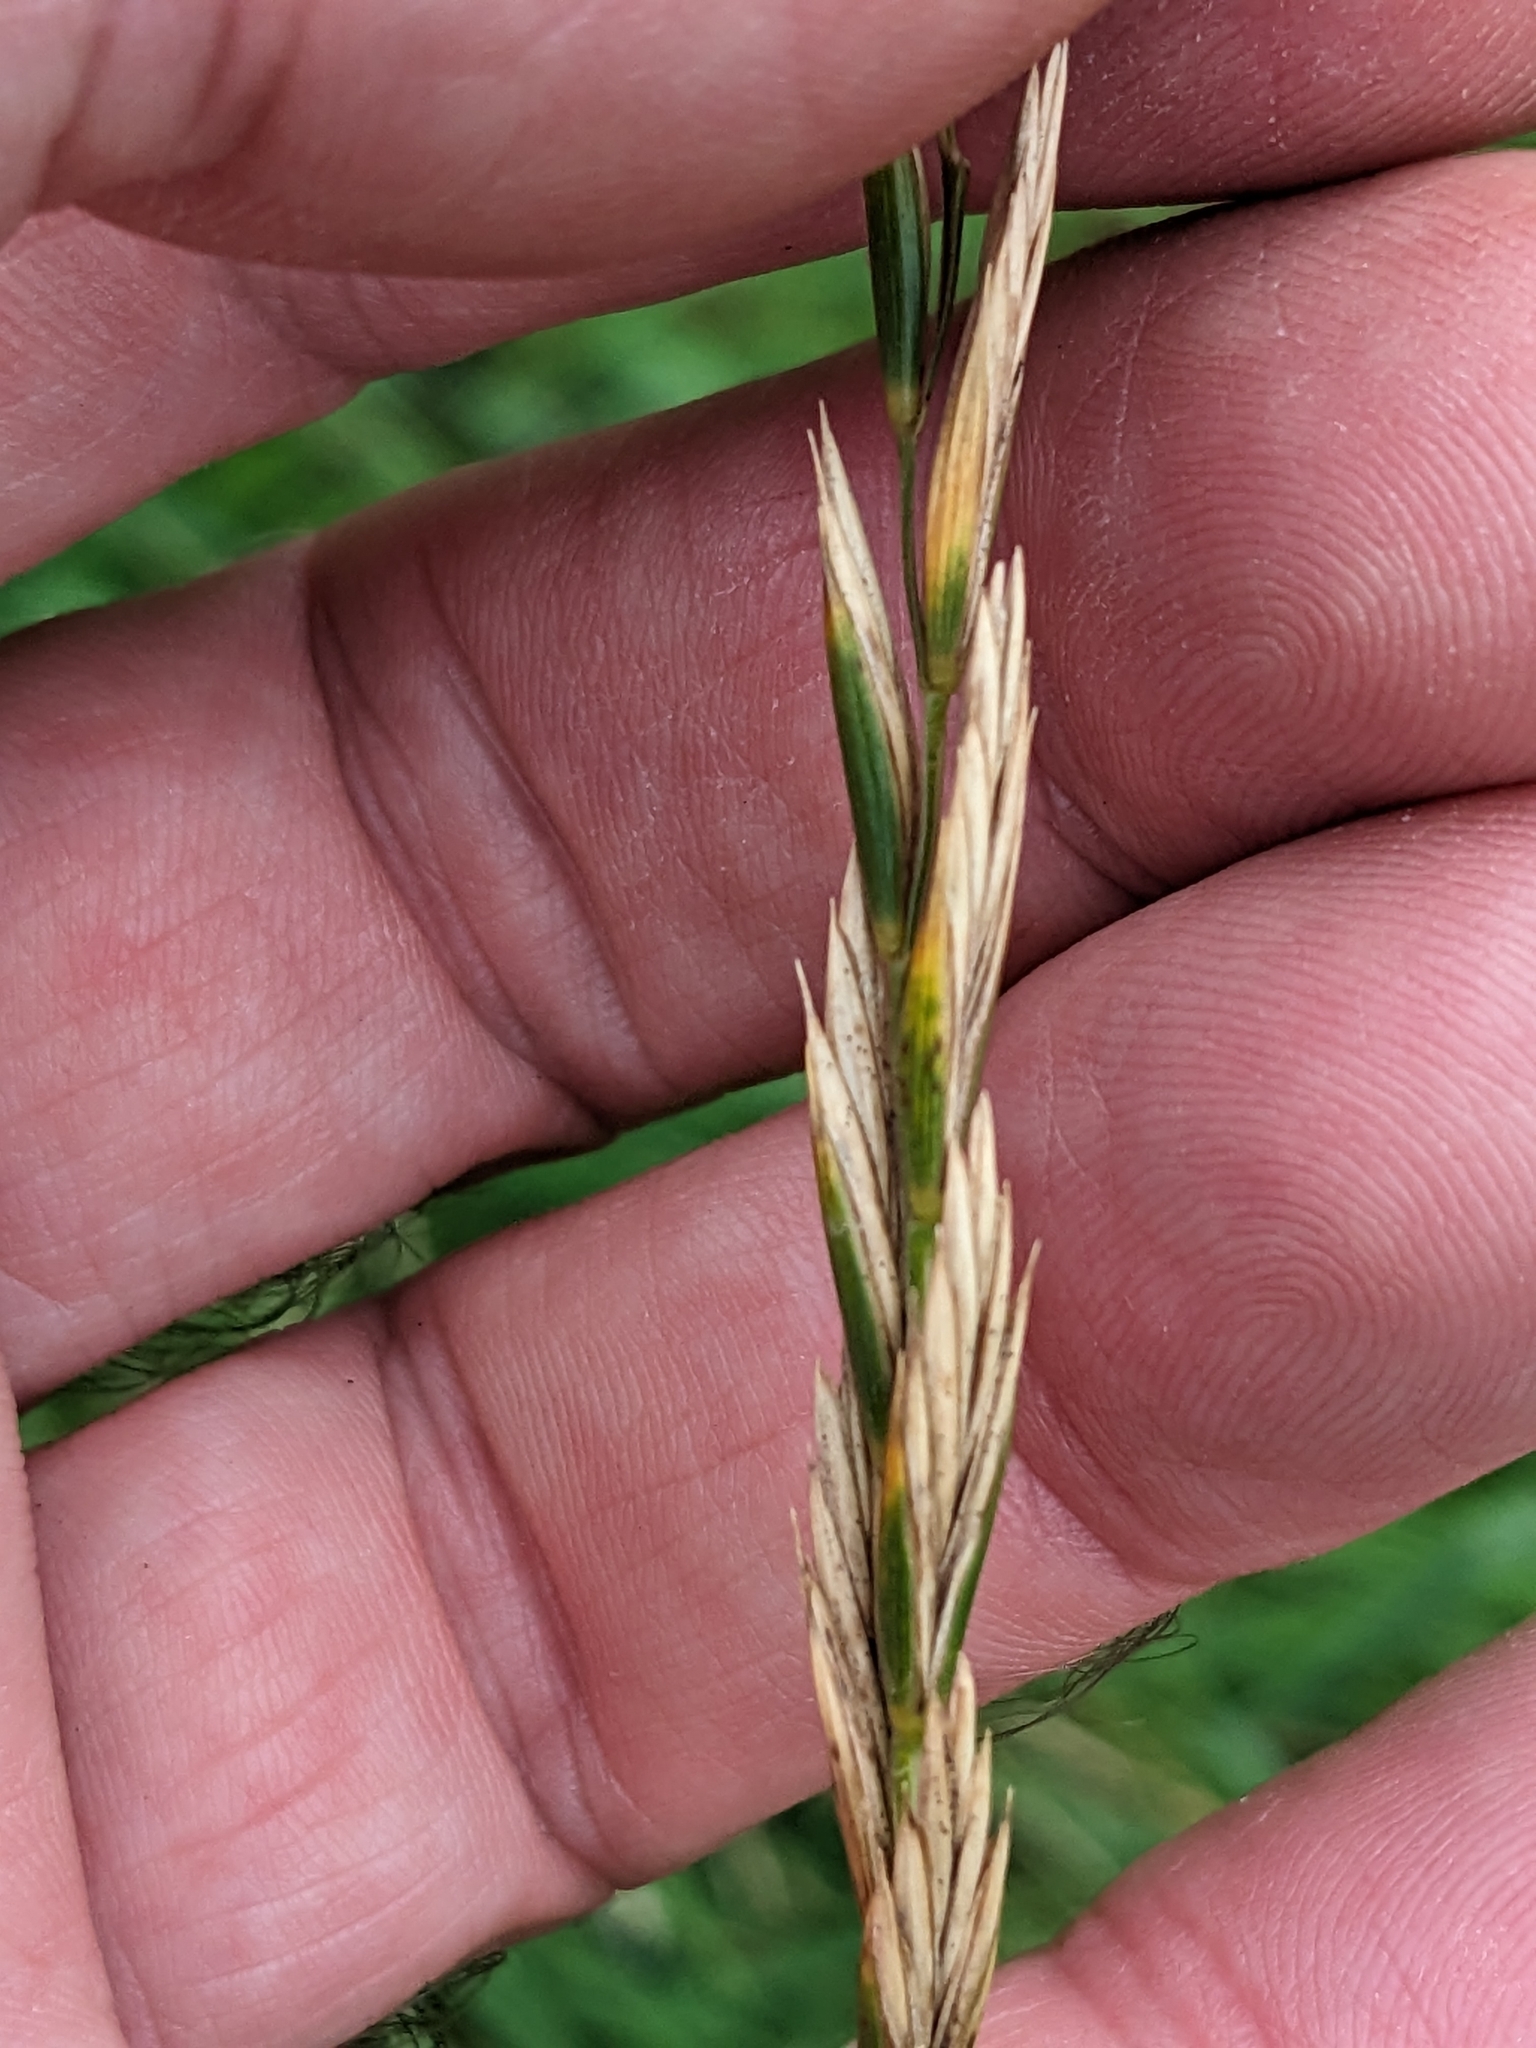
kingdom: Plantae
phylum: Tracheophyta
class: Liliopsida
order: Poales
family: Poaceae
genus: Elymus
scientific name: Elymus repens
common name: Quackgrass
